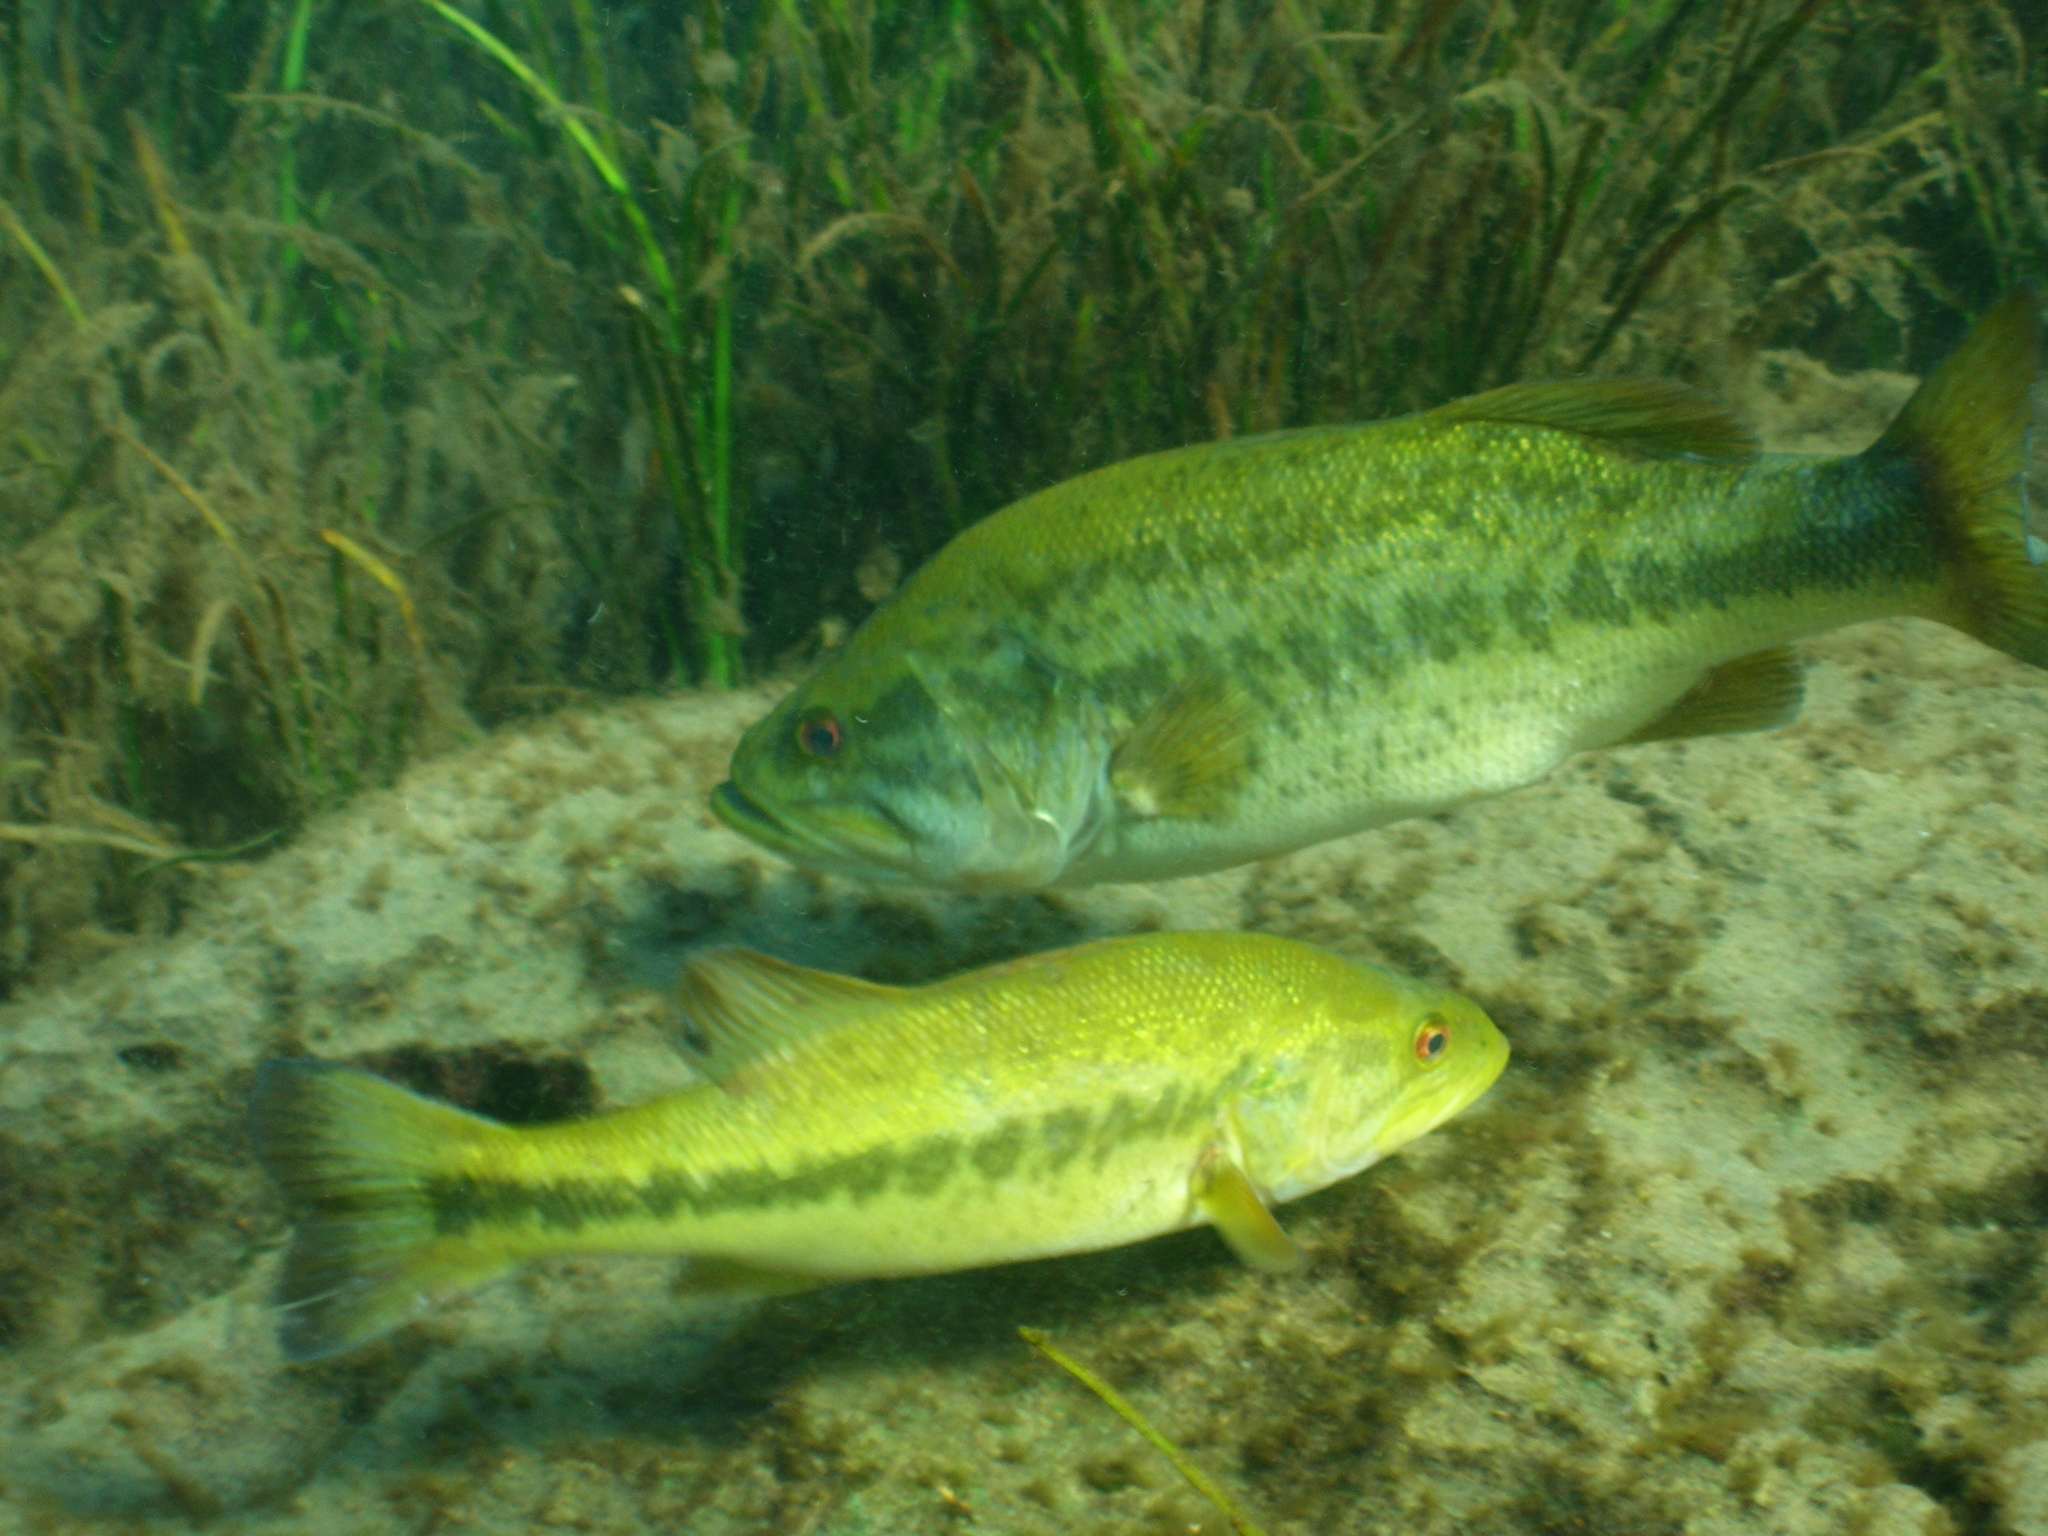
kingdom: Animalia
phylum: Chordata
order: Perciformes
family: Centrarchidae
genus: Micropterus
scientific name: Micropterus salmoides
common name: Largemouth bass
